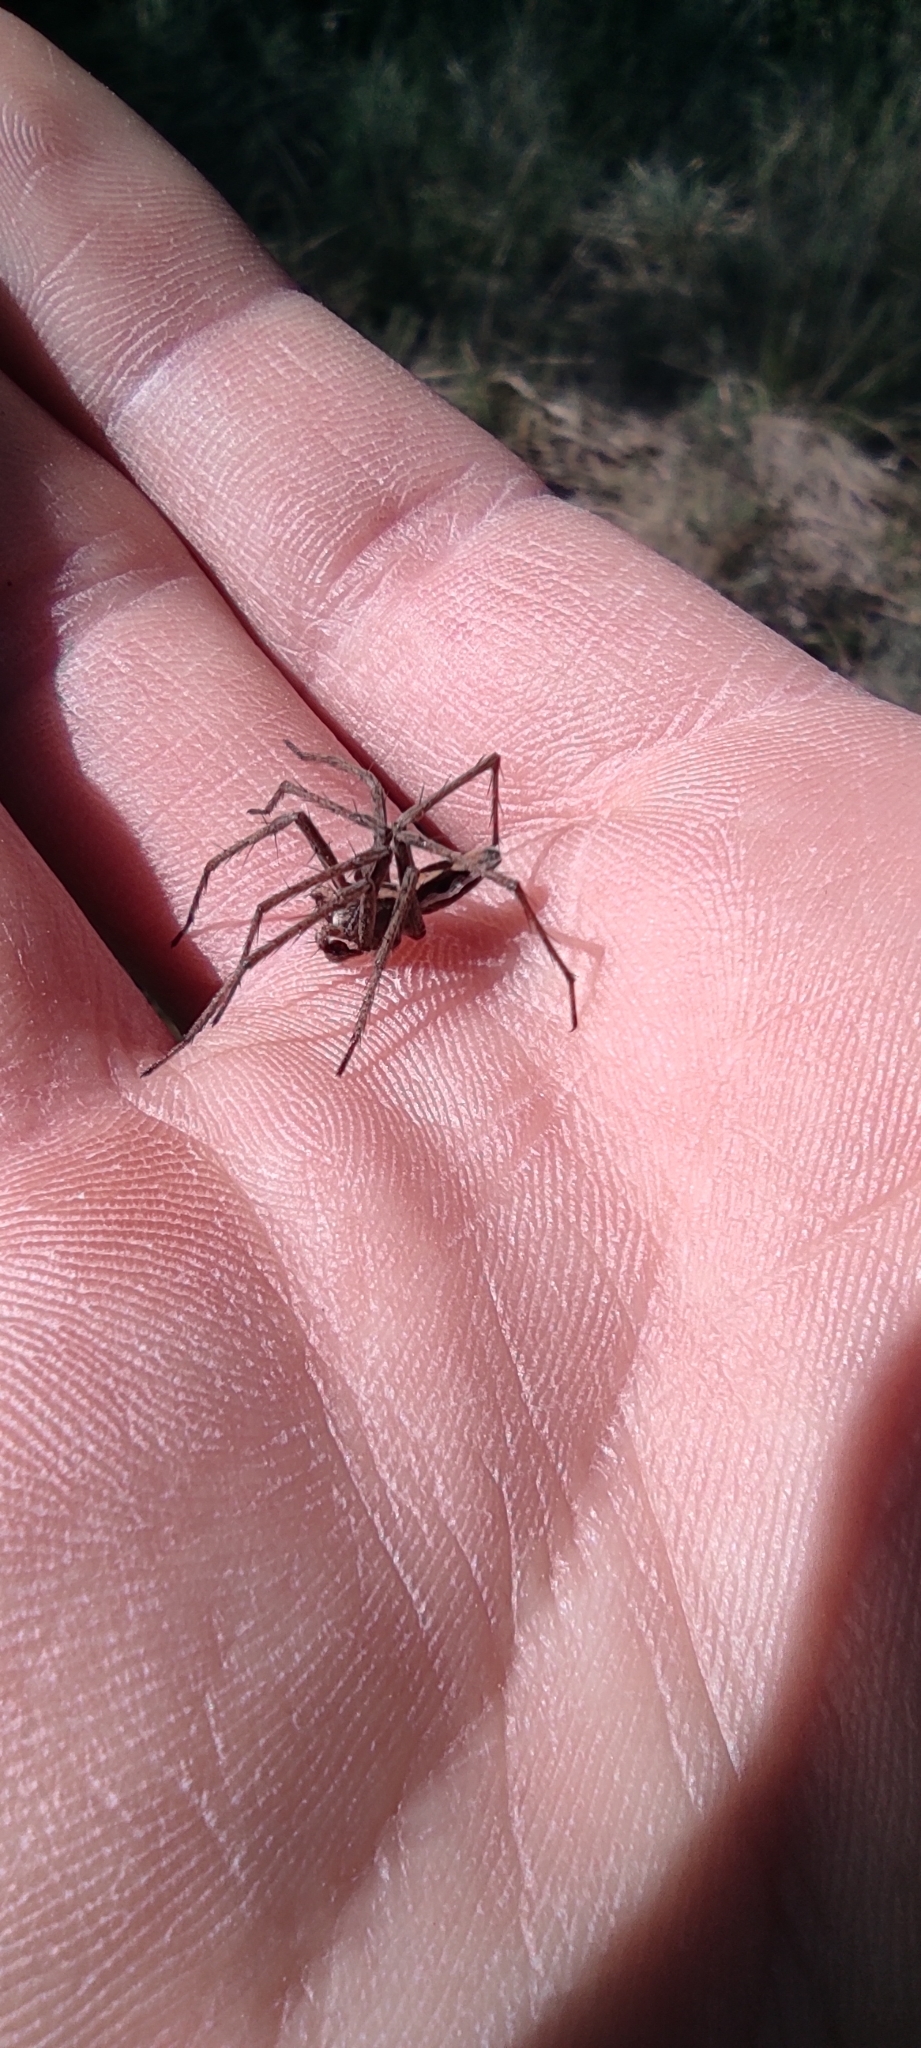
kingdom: Animalia
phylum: Arthropoda
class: Arachnida
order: Araneae
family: Pisauridae
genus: Pisaura
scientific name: Pisaura
